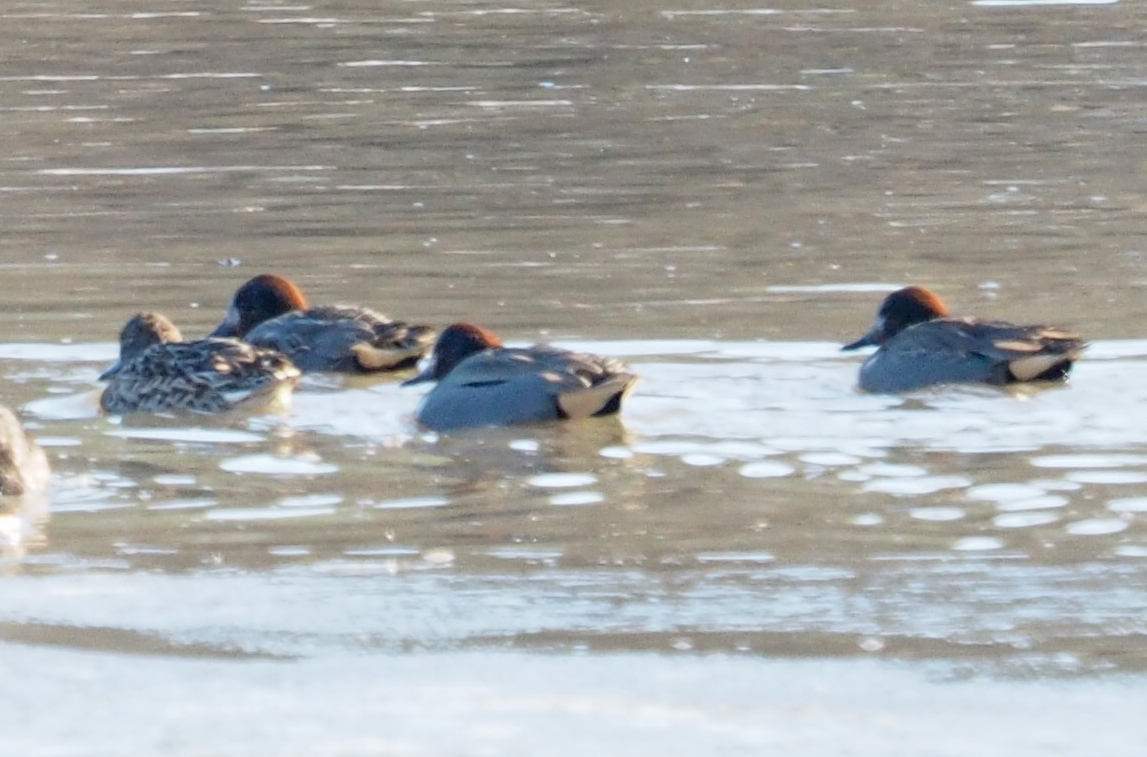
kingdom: Animalia
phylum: Chordata
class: Aves
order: Anseriformes
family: Anatidae
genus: Anas
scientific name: Anas crecca
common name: Eurasian teal
